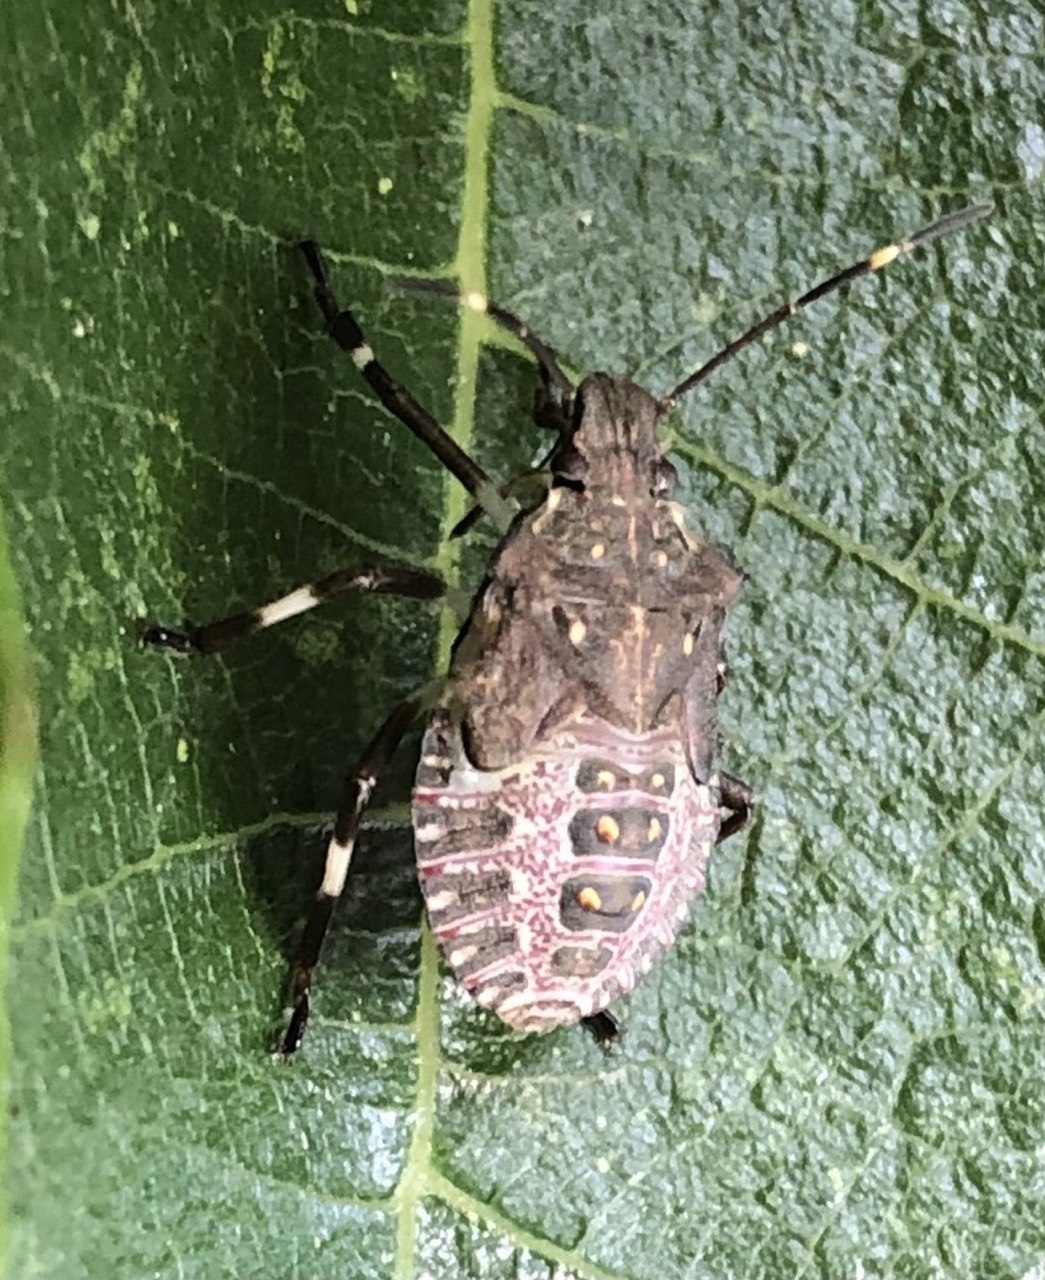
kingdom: Animalia
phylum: Arthropoda
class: Insecta
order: Hemiptera
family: Pentatomidae
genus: Halyomorpha
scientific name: Halyomorpha halys
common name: Brown marmorated stink bug
